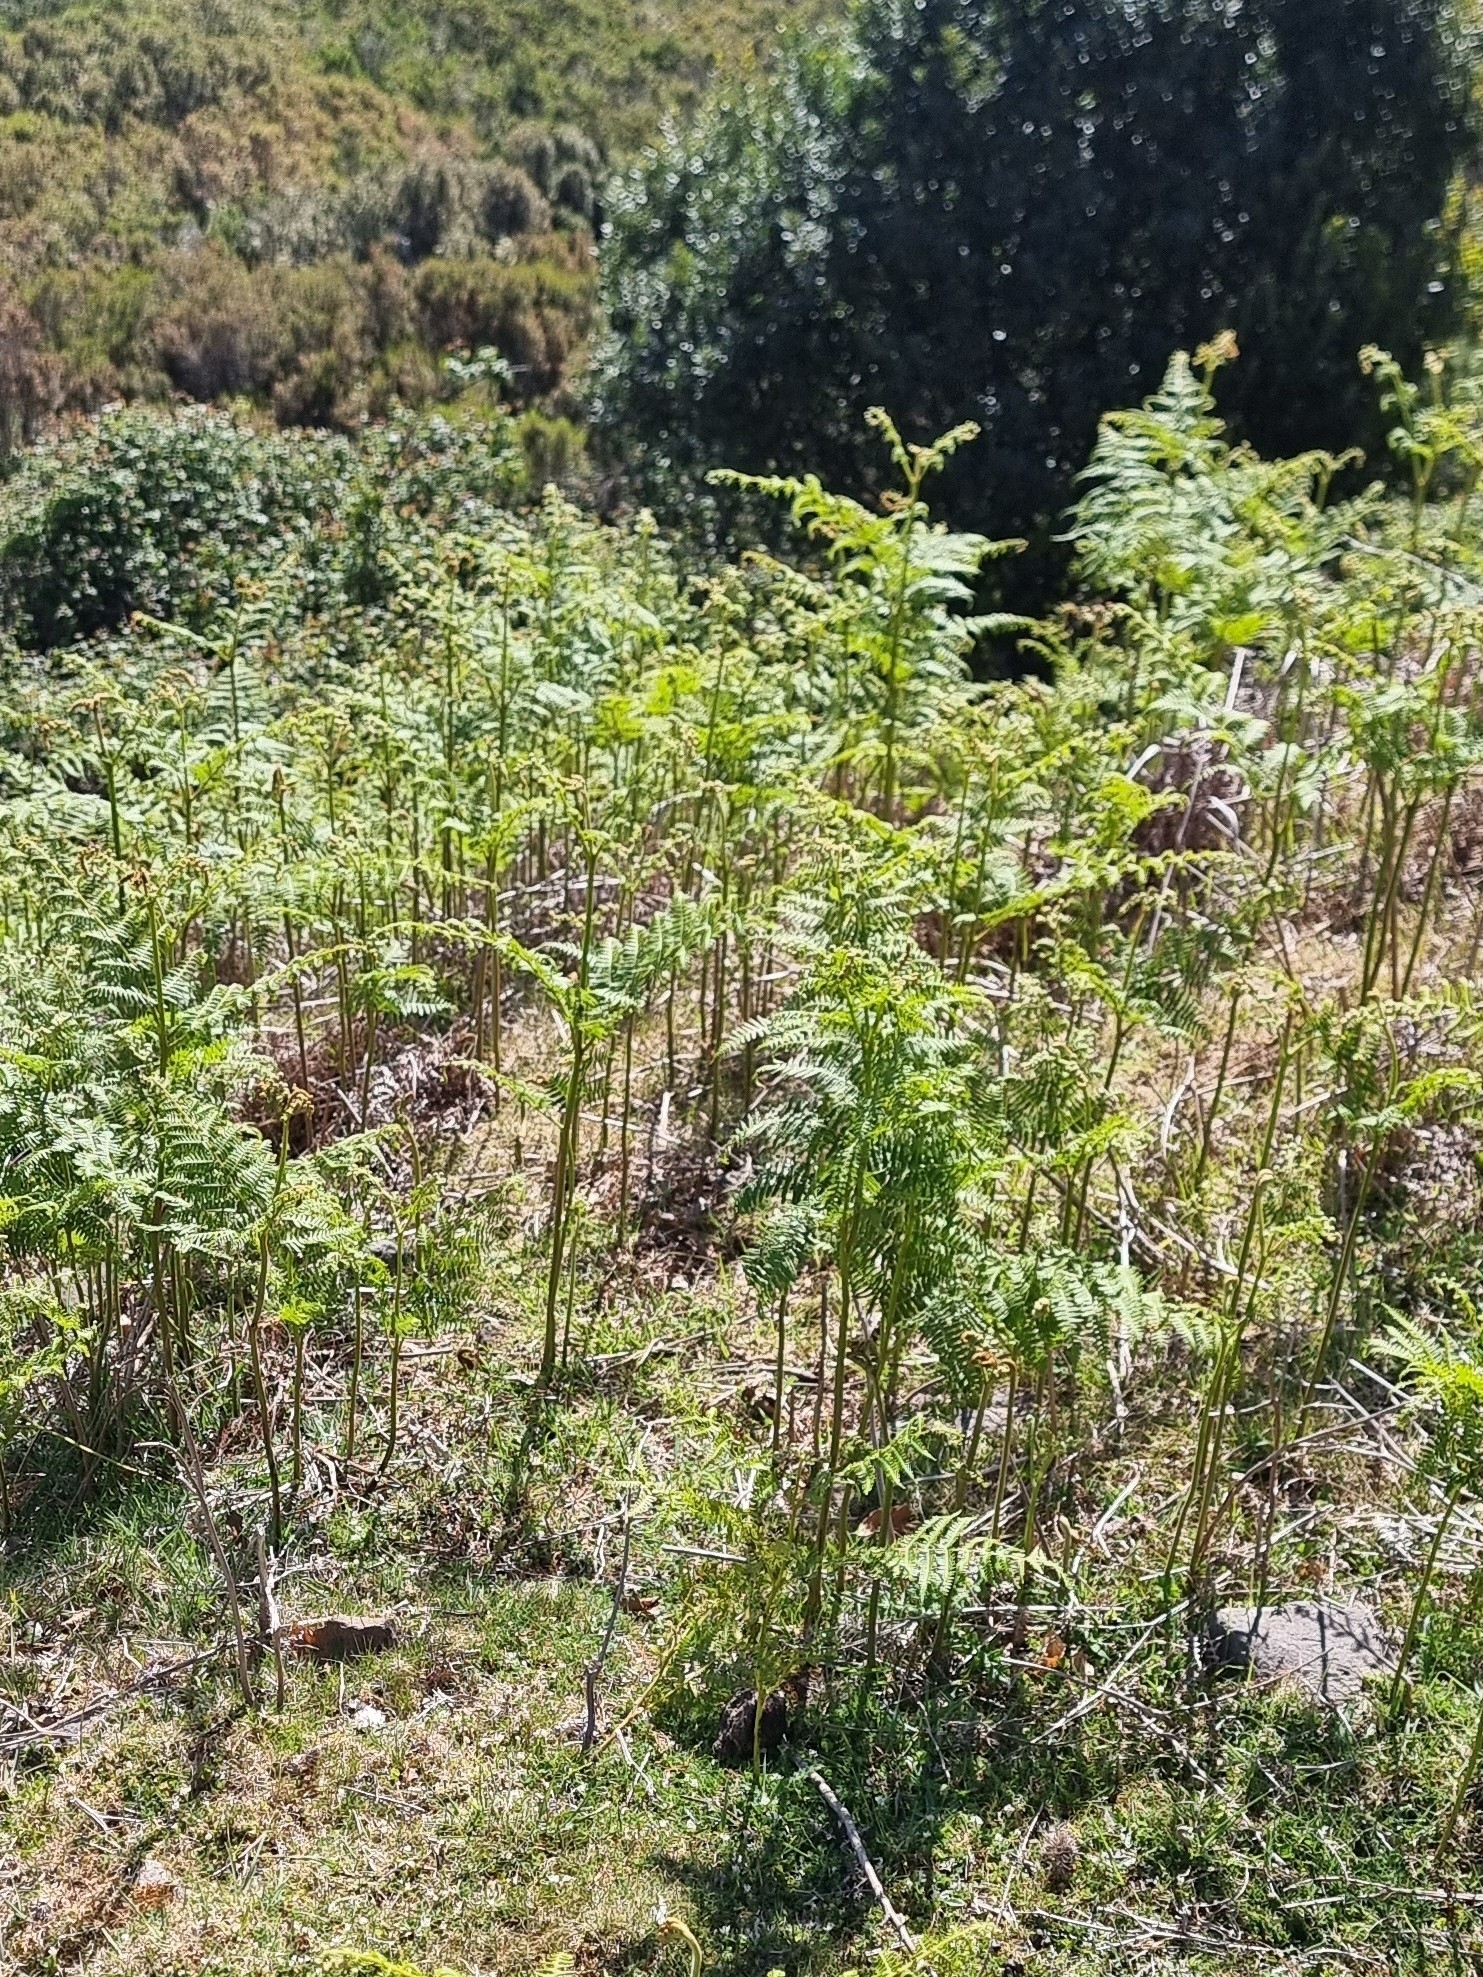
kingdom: Plantae
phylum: Tracheophyta
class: Polypodiopsida
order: Polypodiales
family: Dennstaedtiaceae
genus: Pteridium
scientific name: Pteridium aquilinum
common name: Bracken
